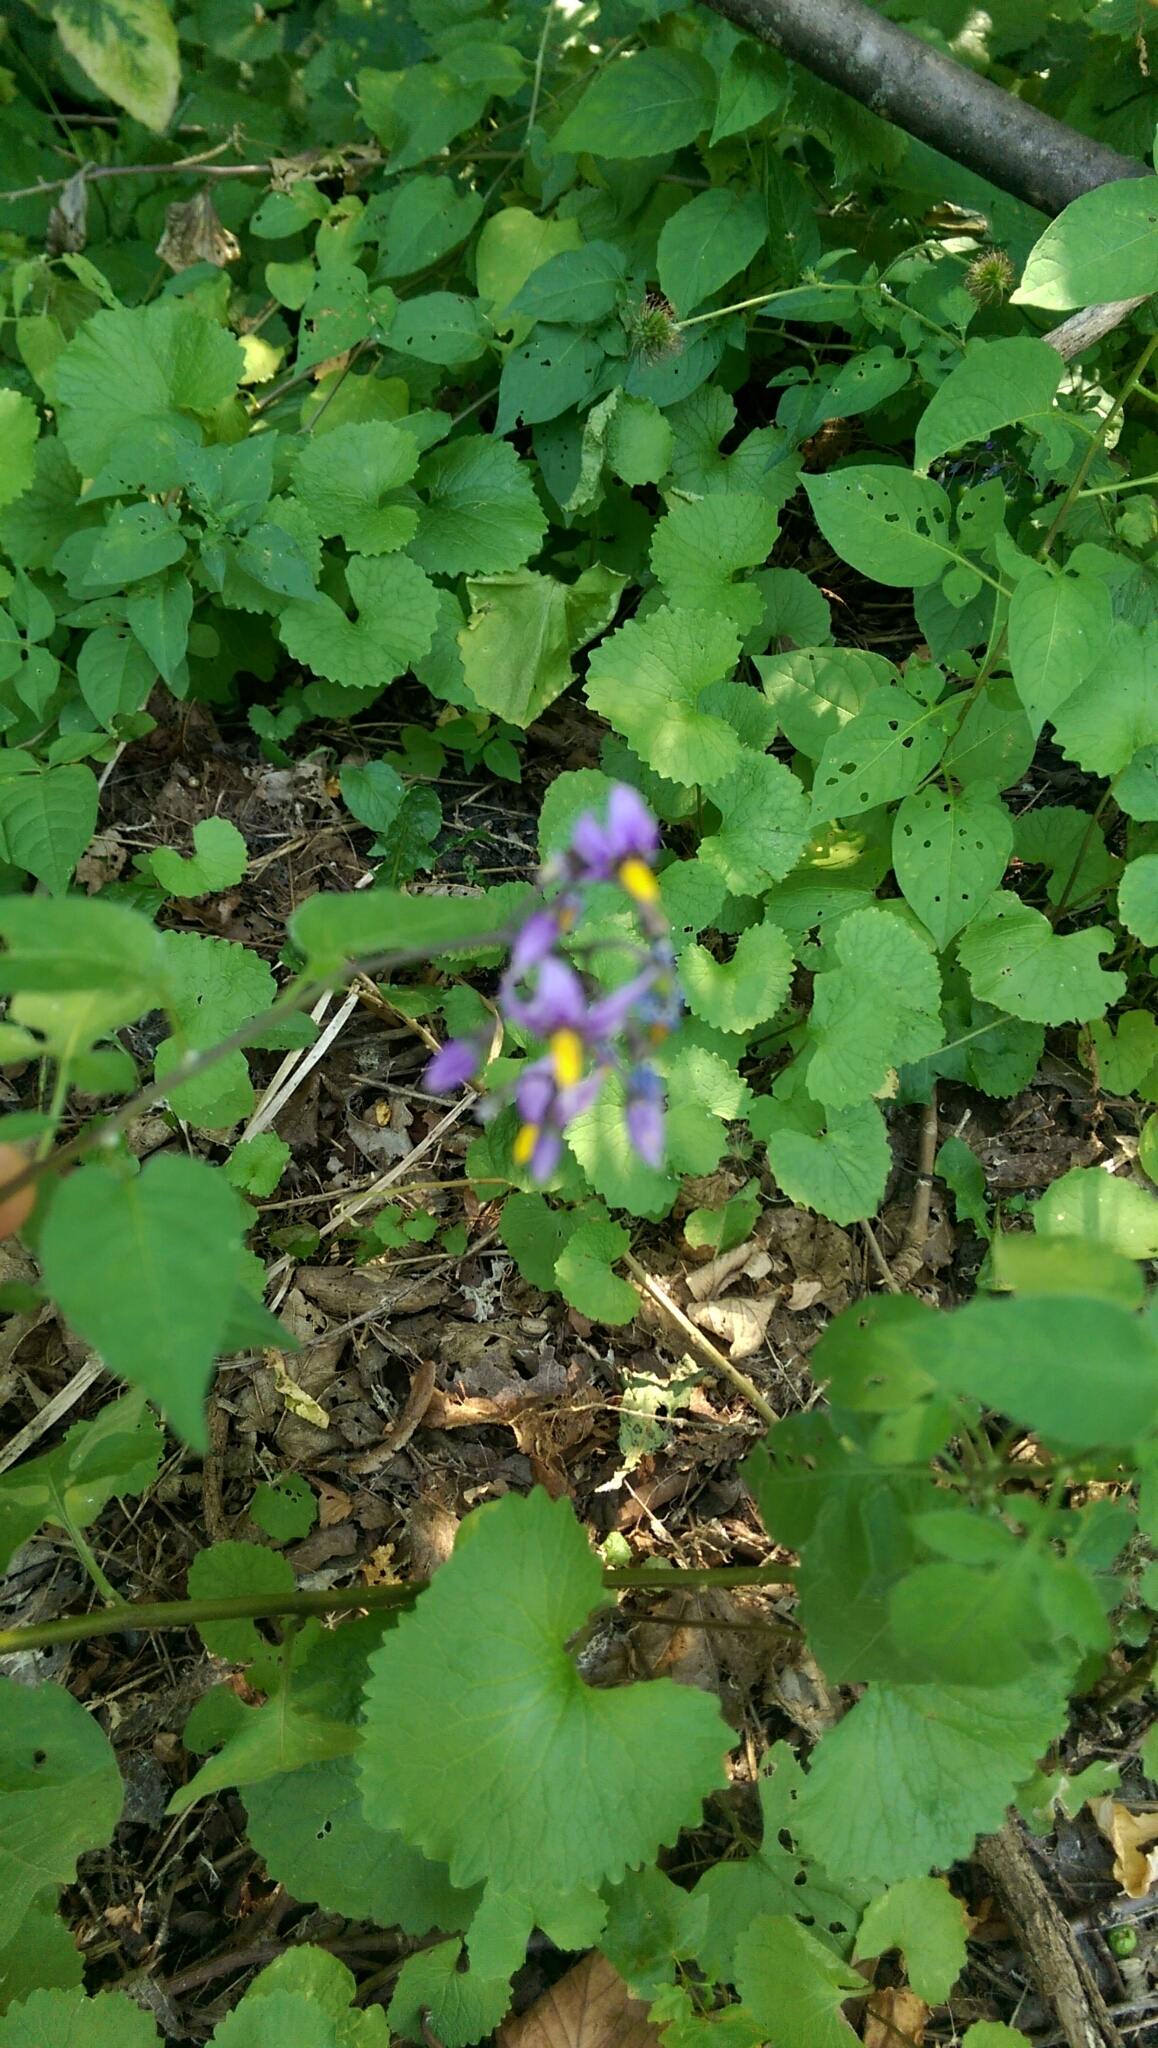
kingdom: Plantae
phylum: Tracheophyta
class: Magnoliopsida
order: Solanales
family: Solanaceae
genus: Solanum
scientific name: Solanum dulcamara
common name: Climbing nightshade
